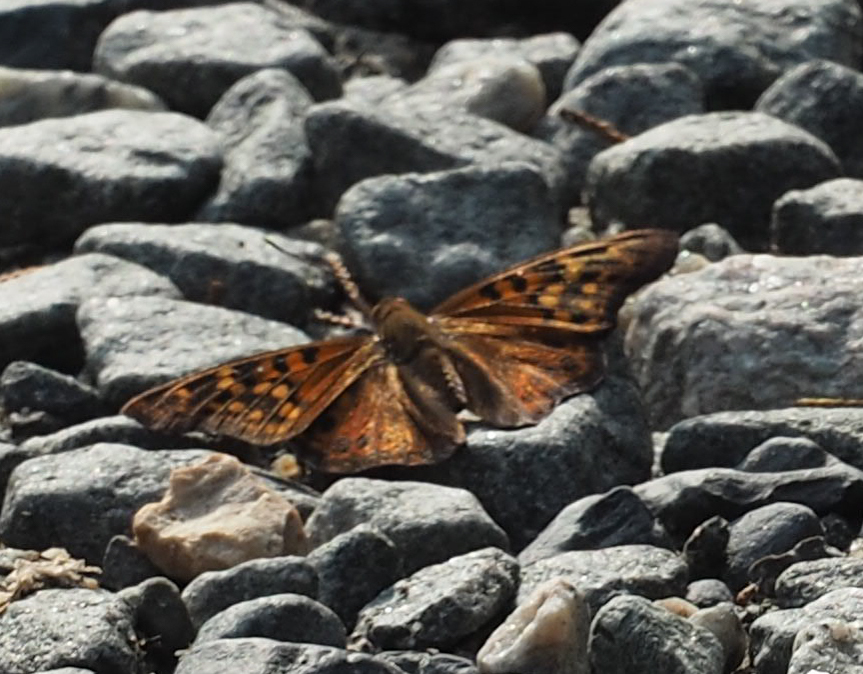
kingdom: Animalia
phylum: Arthropoda
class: Insecta
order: Lepidoptera
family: Nymphalidae
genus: Asterocampa
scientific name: Asterocampa clyton
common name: Tawny emperor
